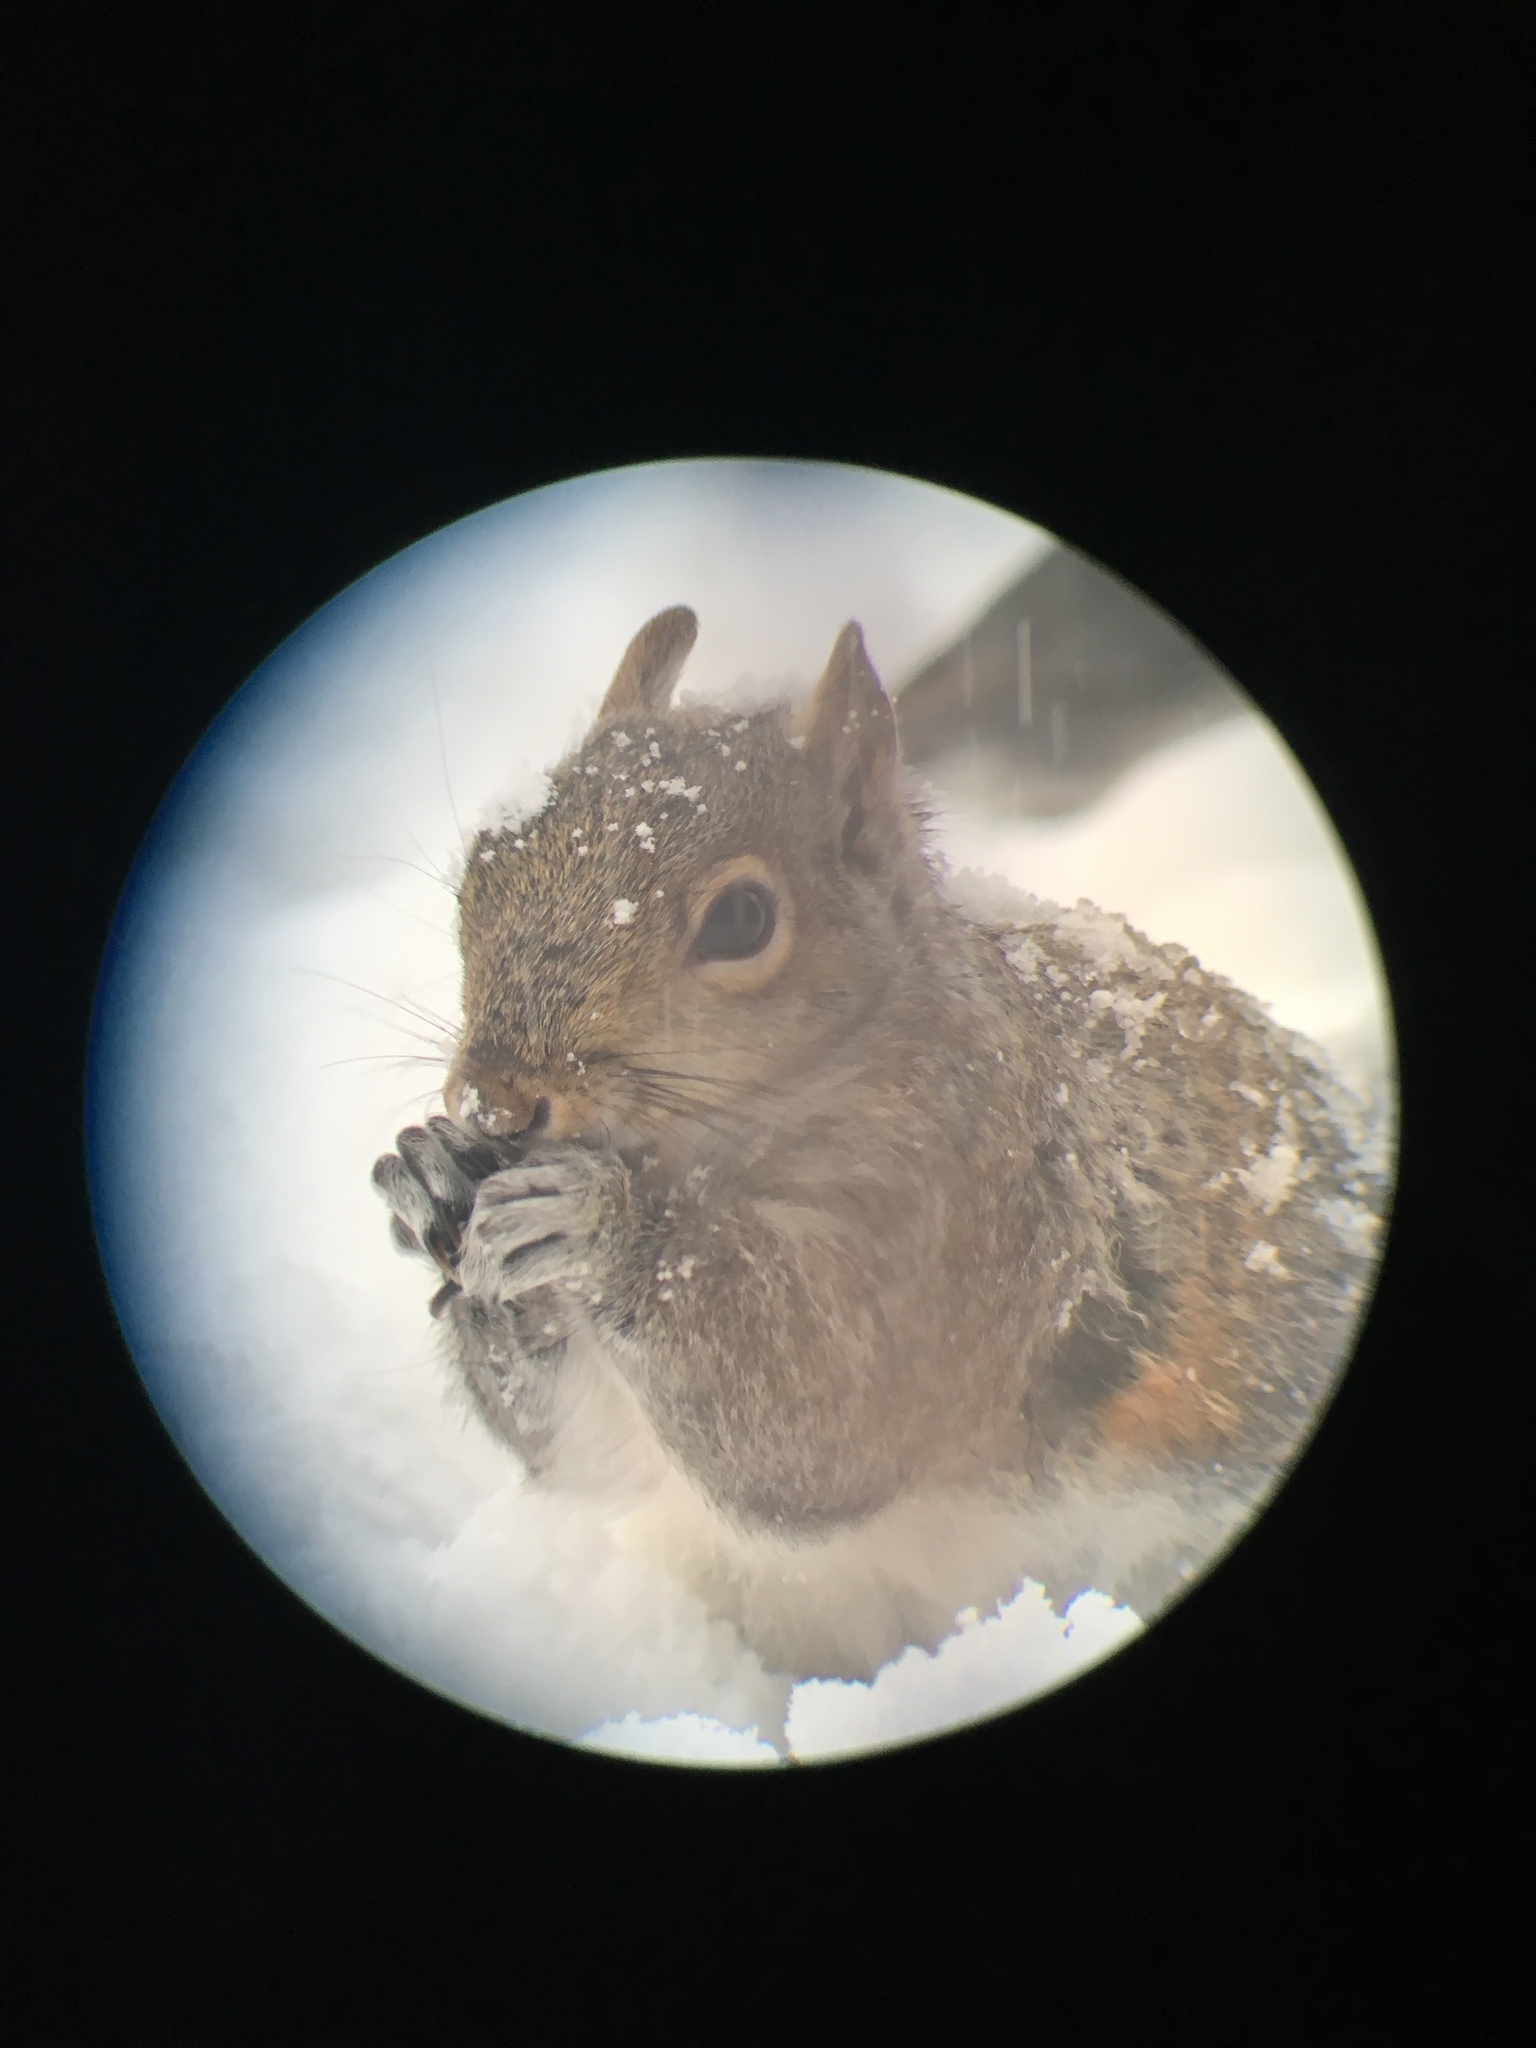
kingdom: Animalia
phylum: Chordata
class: Mammalia
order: Rodentia
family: Sciuridae
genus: Sciurus
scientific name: Sciurus carolinensis
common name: Eastern gray squirrel
